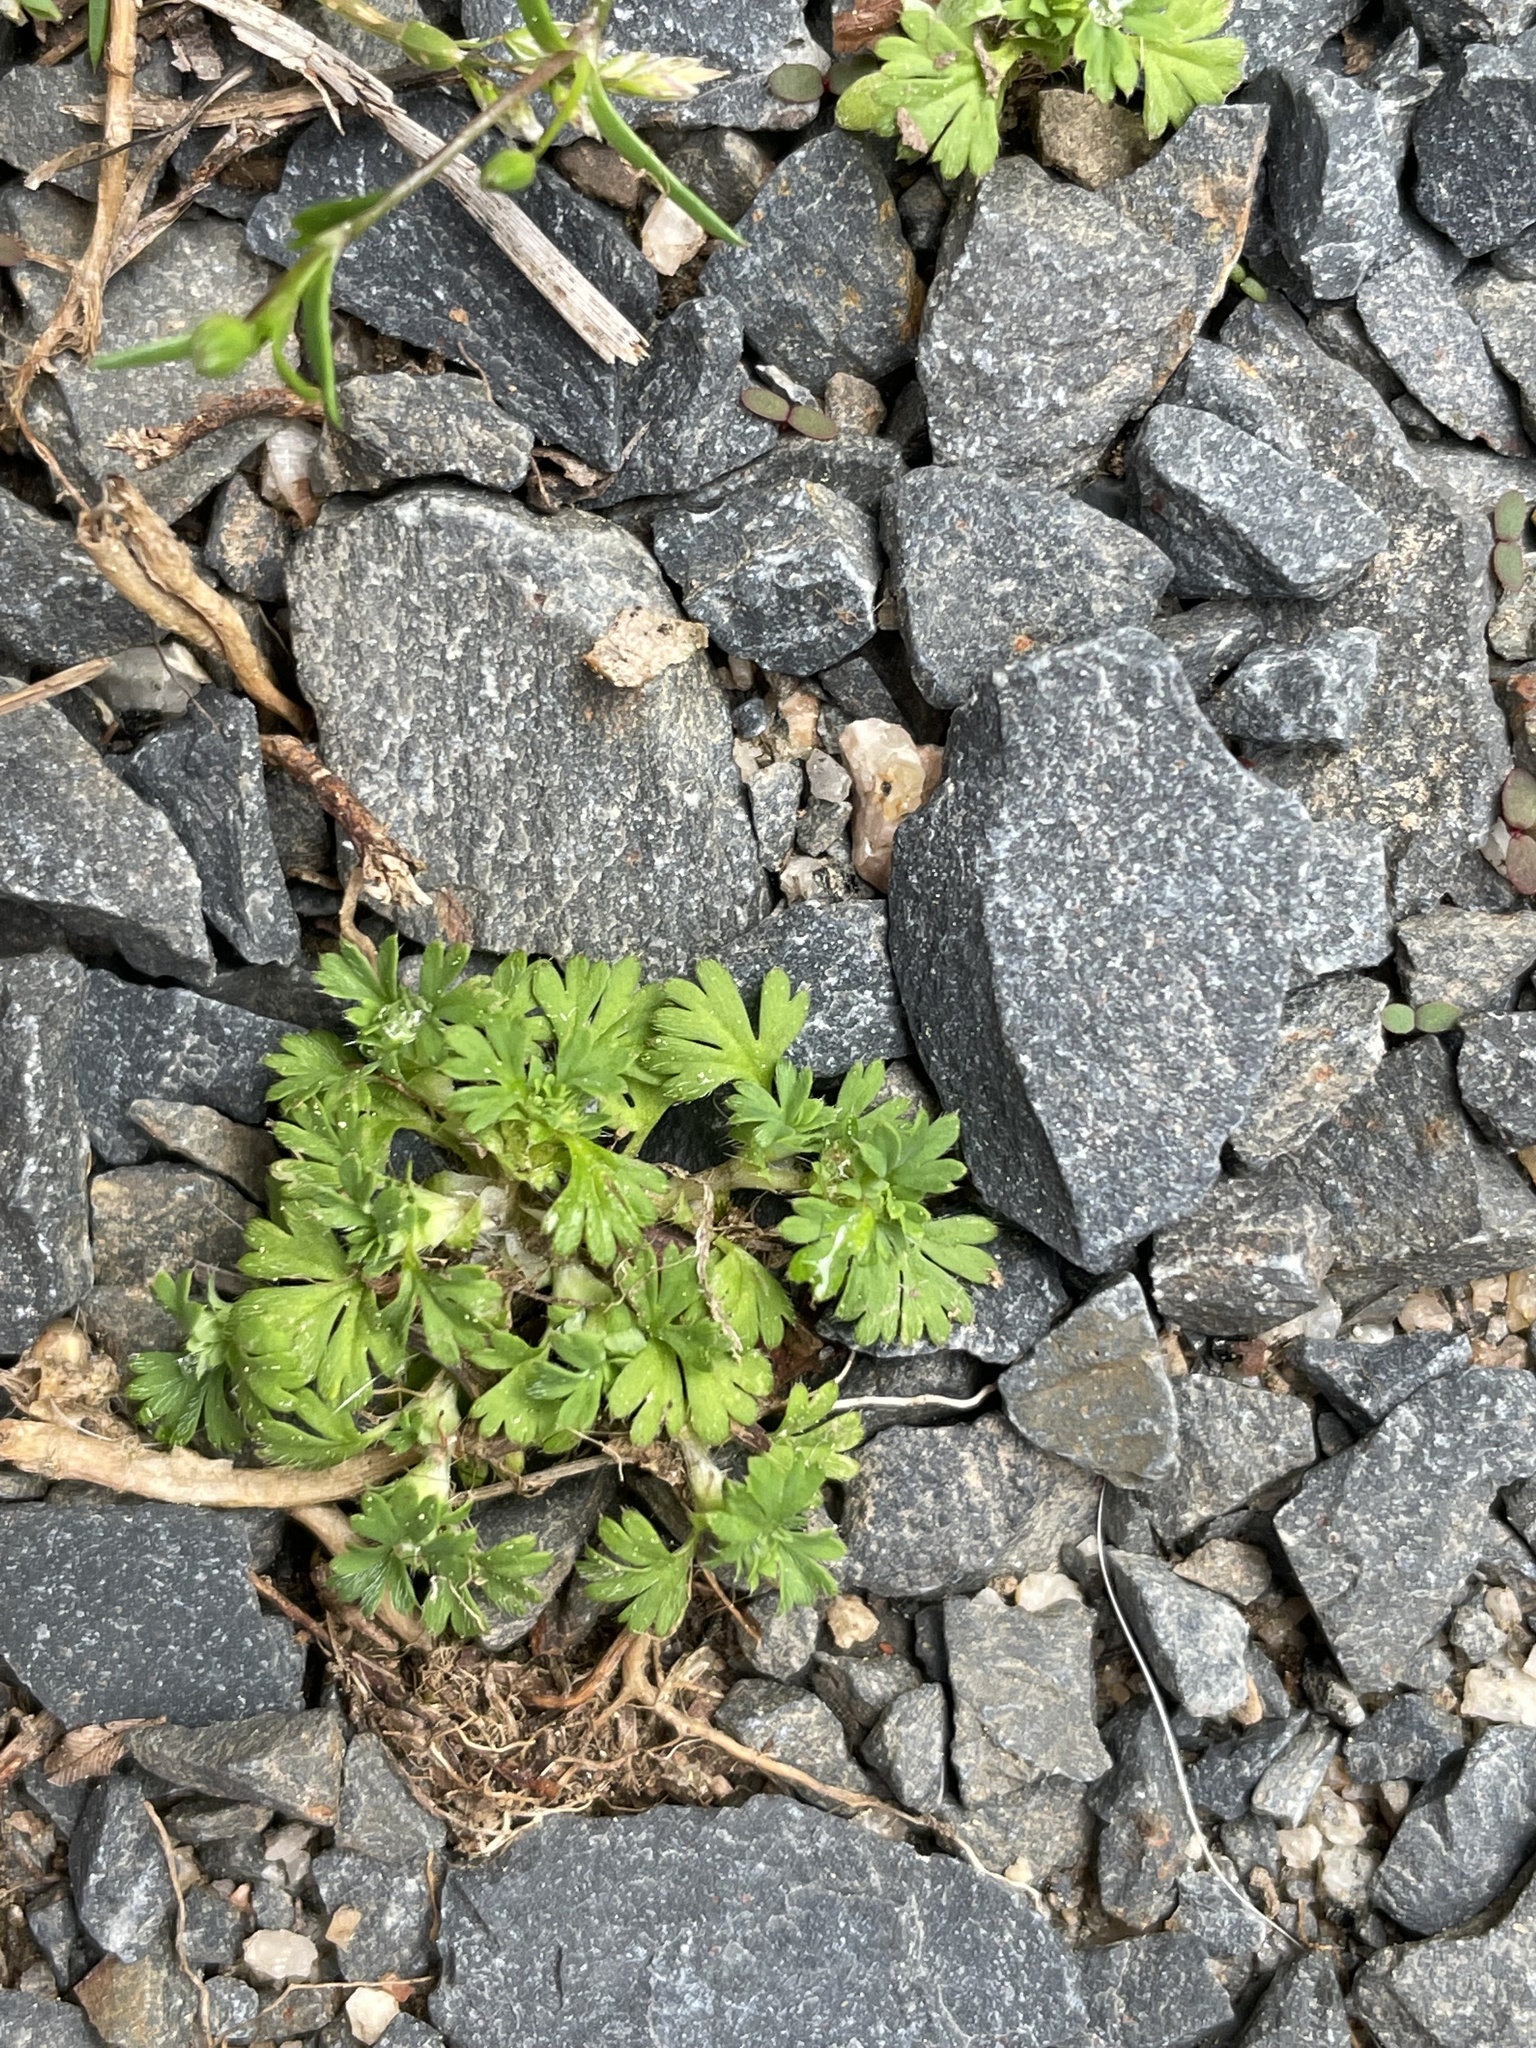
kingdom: Plantae
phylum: Tracheophyta
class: Magnoliopsida
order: Rosales
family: Rosaceae
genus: Aphanes
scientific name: Aphanes australis
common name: Slender parsley-piert
